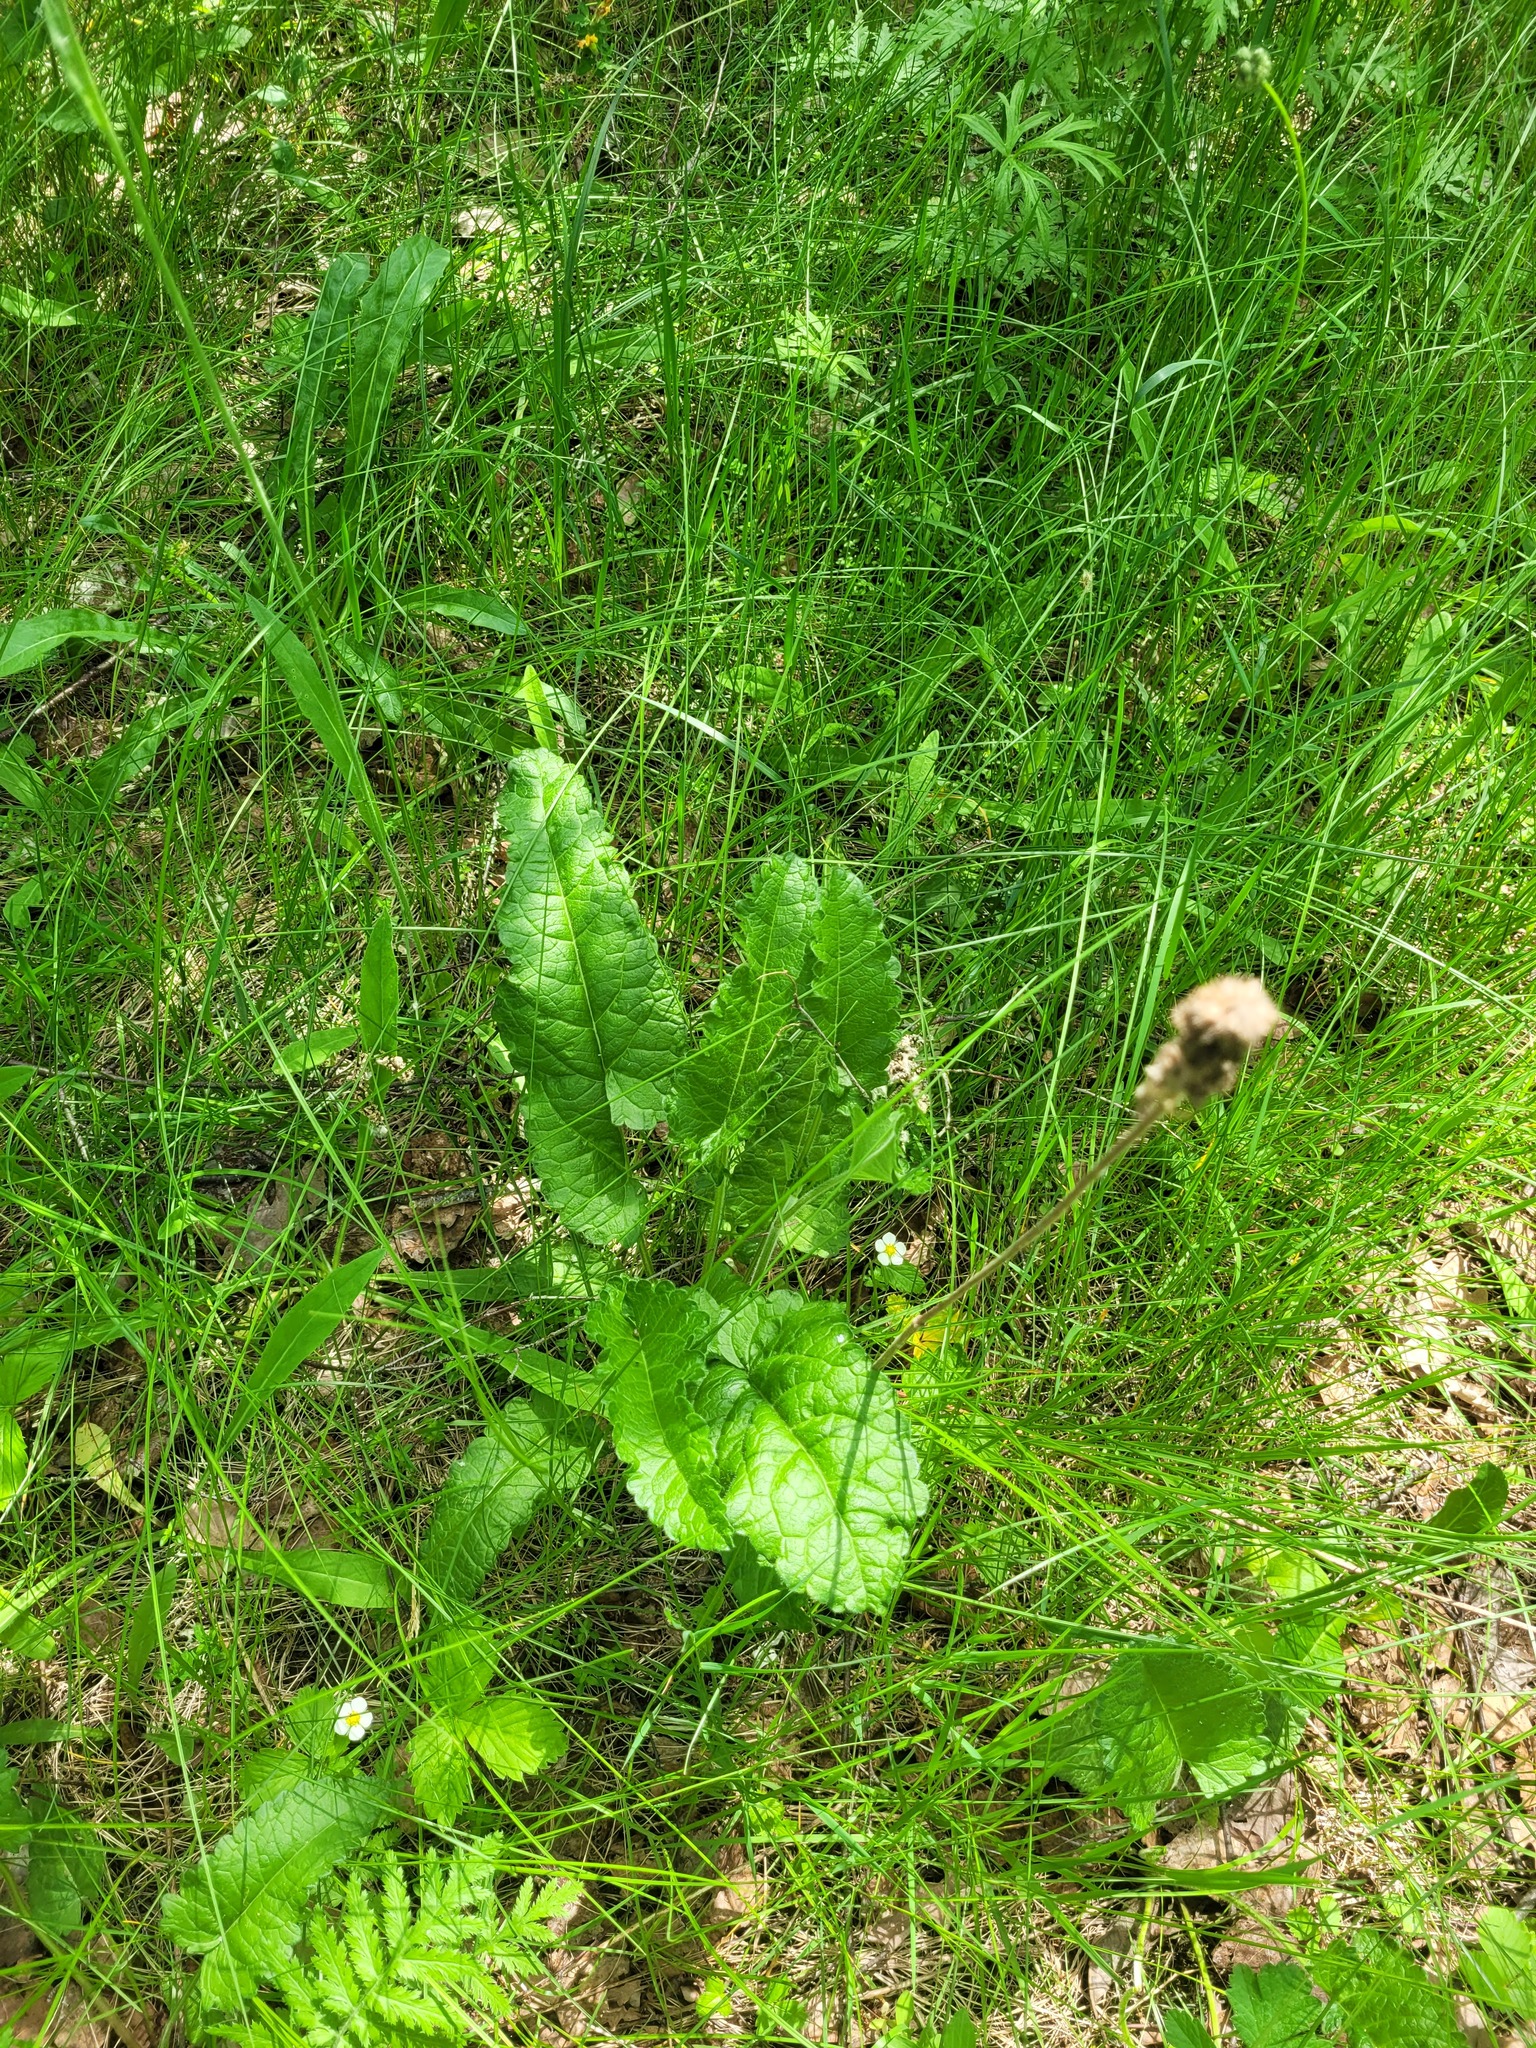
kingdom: Plantae
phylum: Tracheophyta
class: Magnoliopsida
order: Lamiales
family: Lamiaceae
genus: Betonica
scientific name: Betonica officinalis
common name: Bishop's-wort
